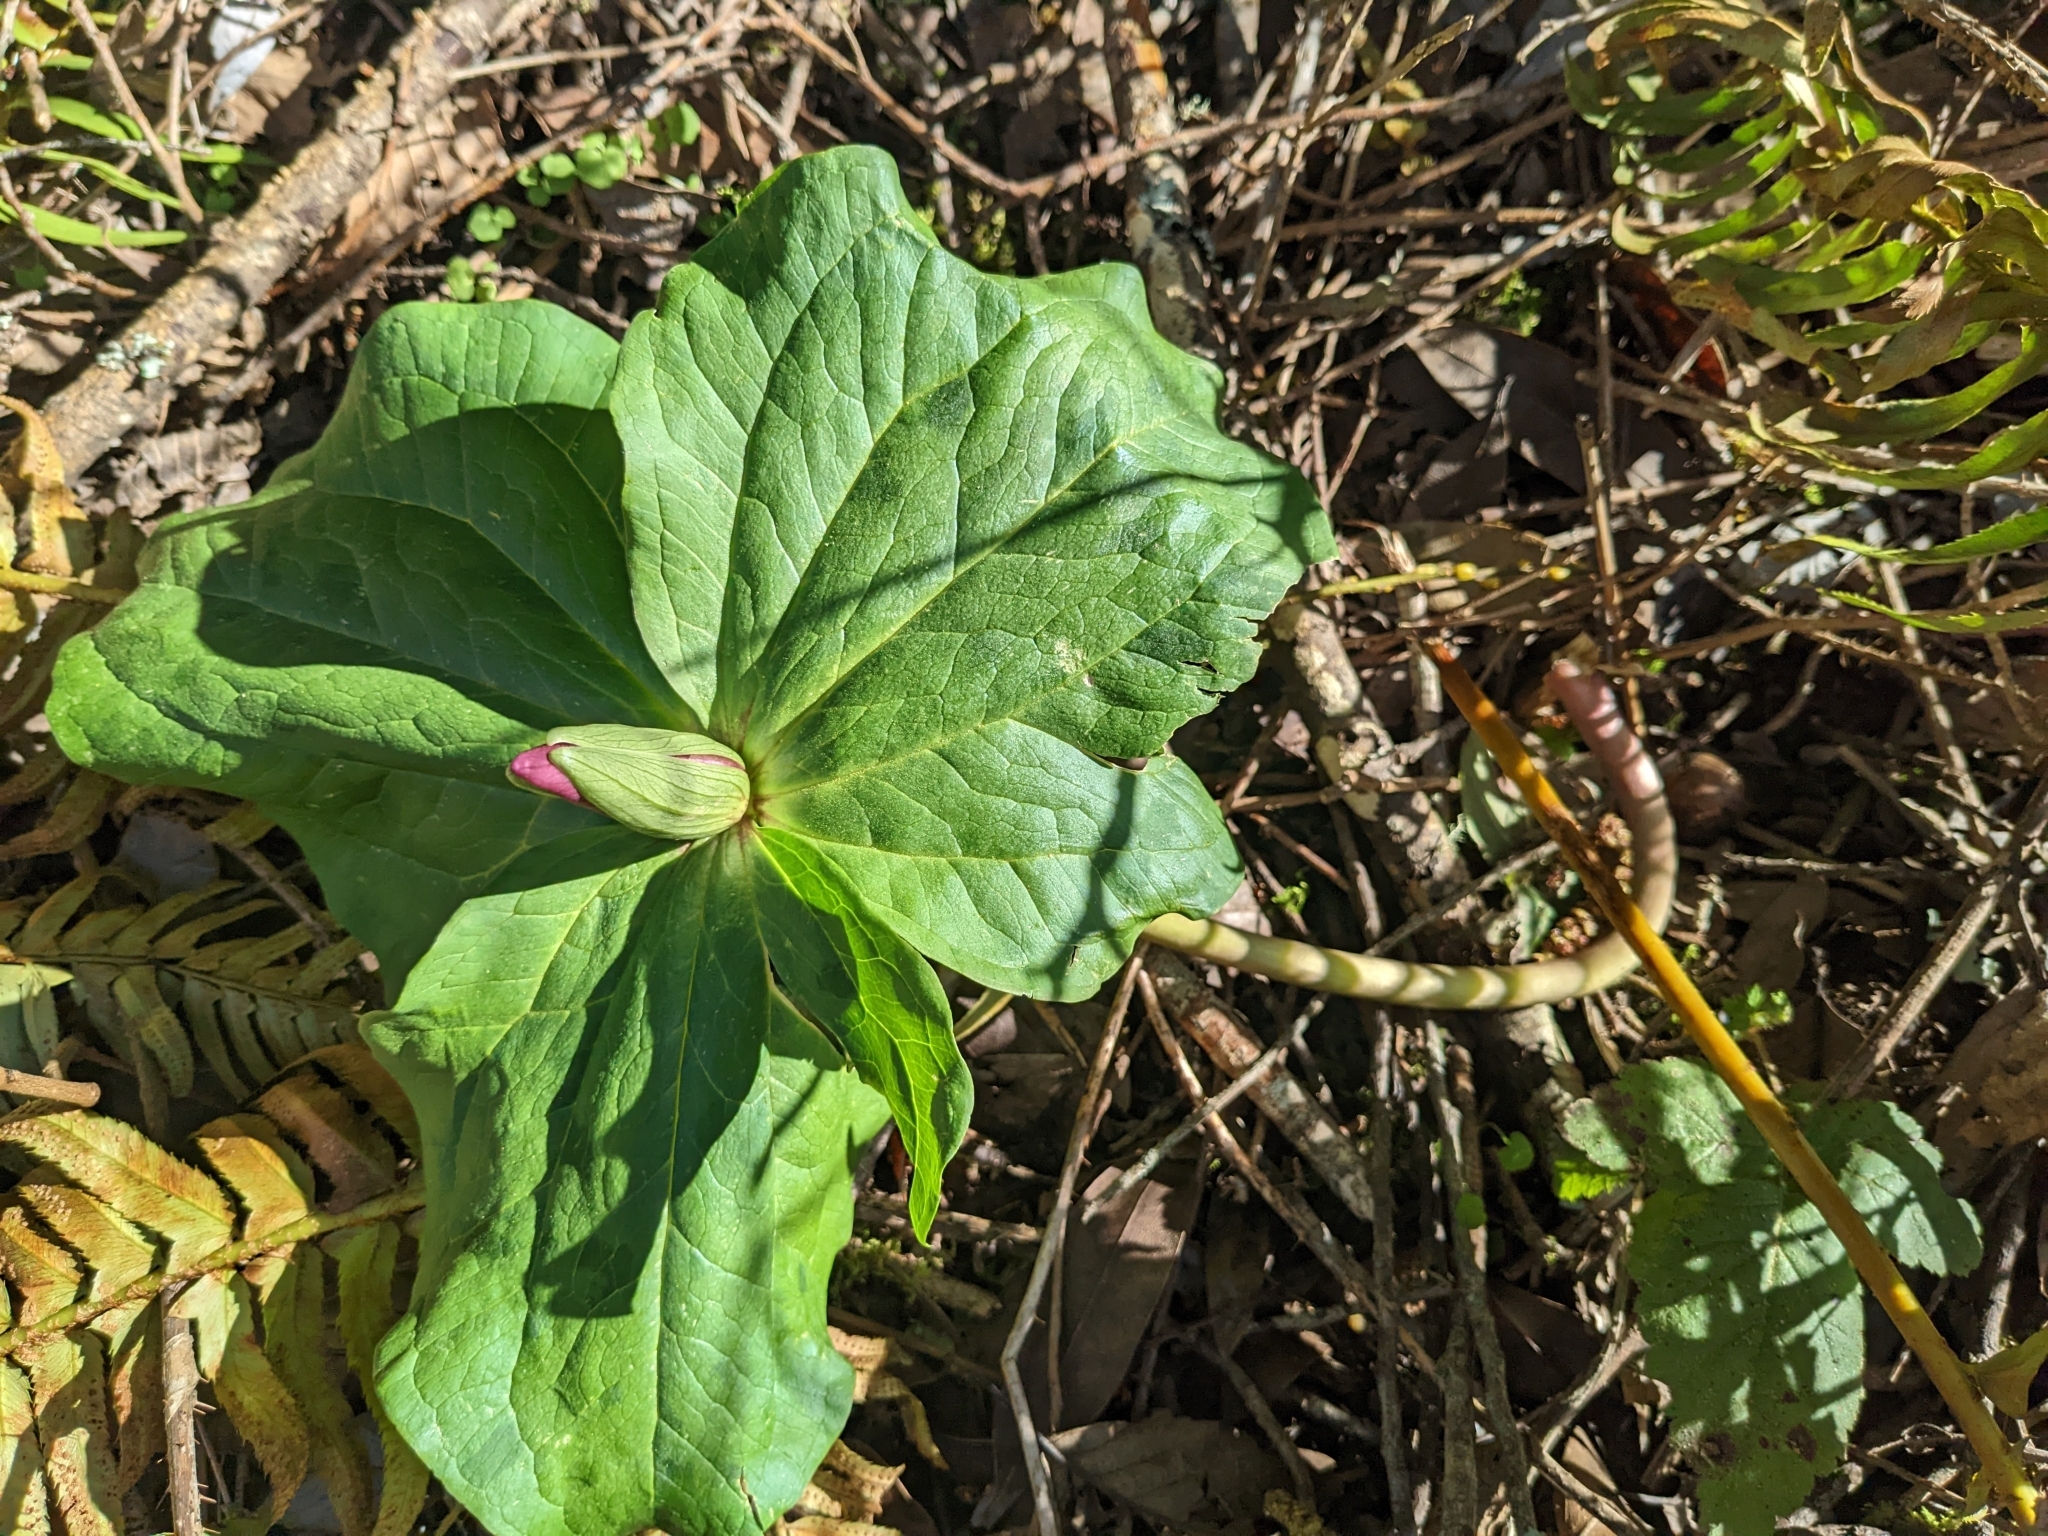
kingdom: Plantae
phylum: Tracheophyta
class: Liliopsida
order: Liliales
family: Melanthiaceae
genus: Trillium
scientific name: Trillium chloropetalum
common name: Giant trillium
